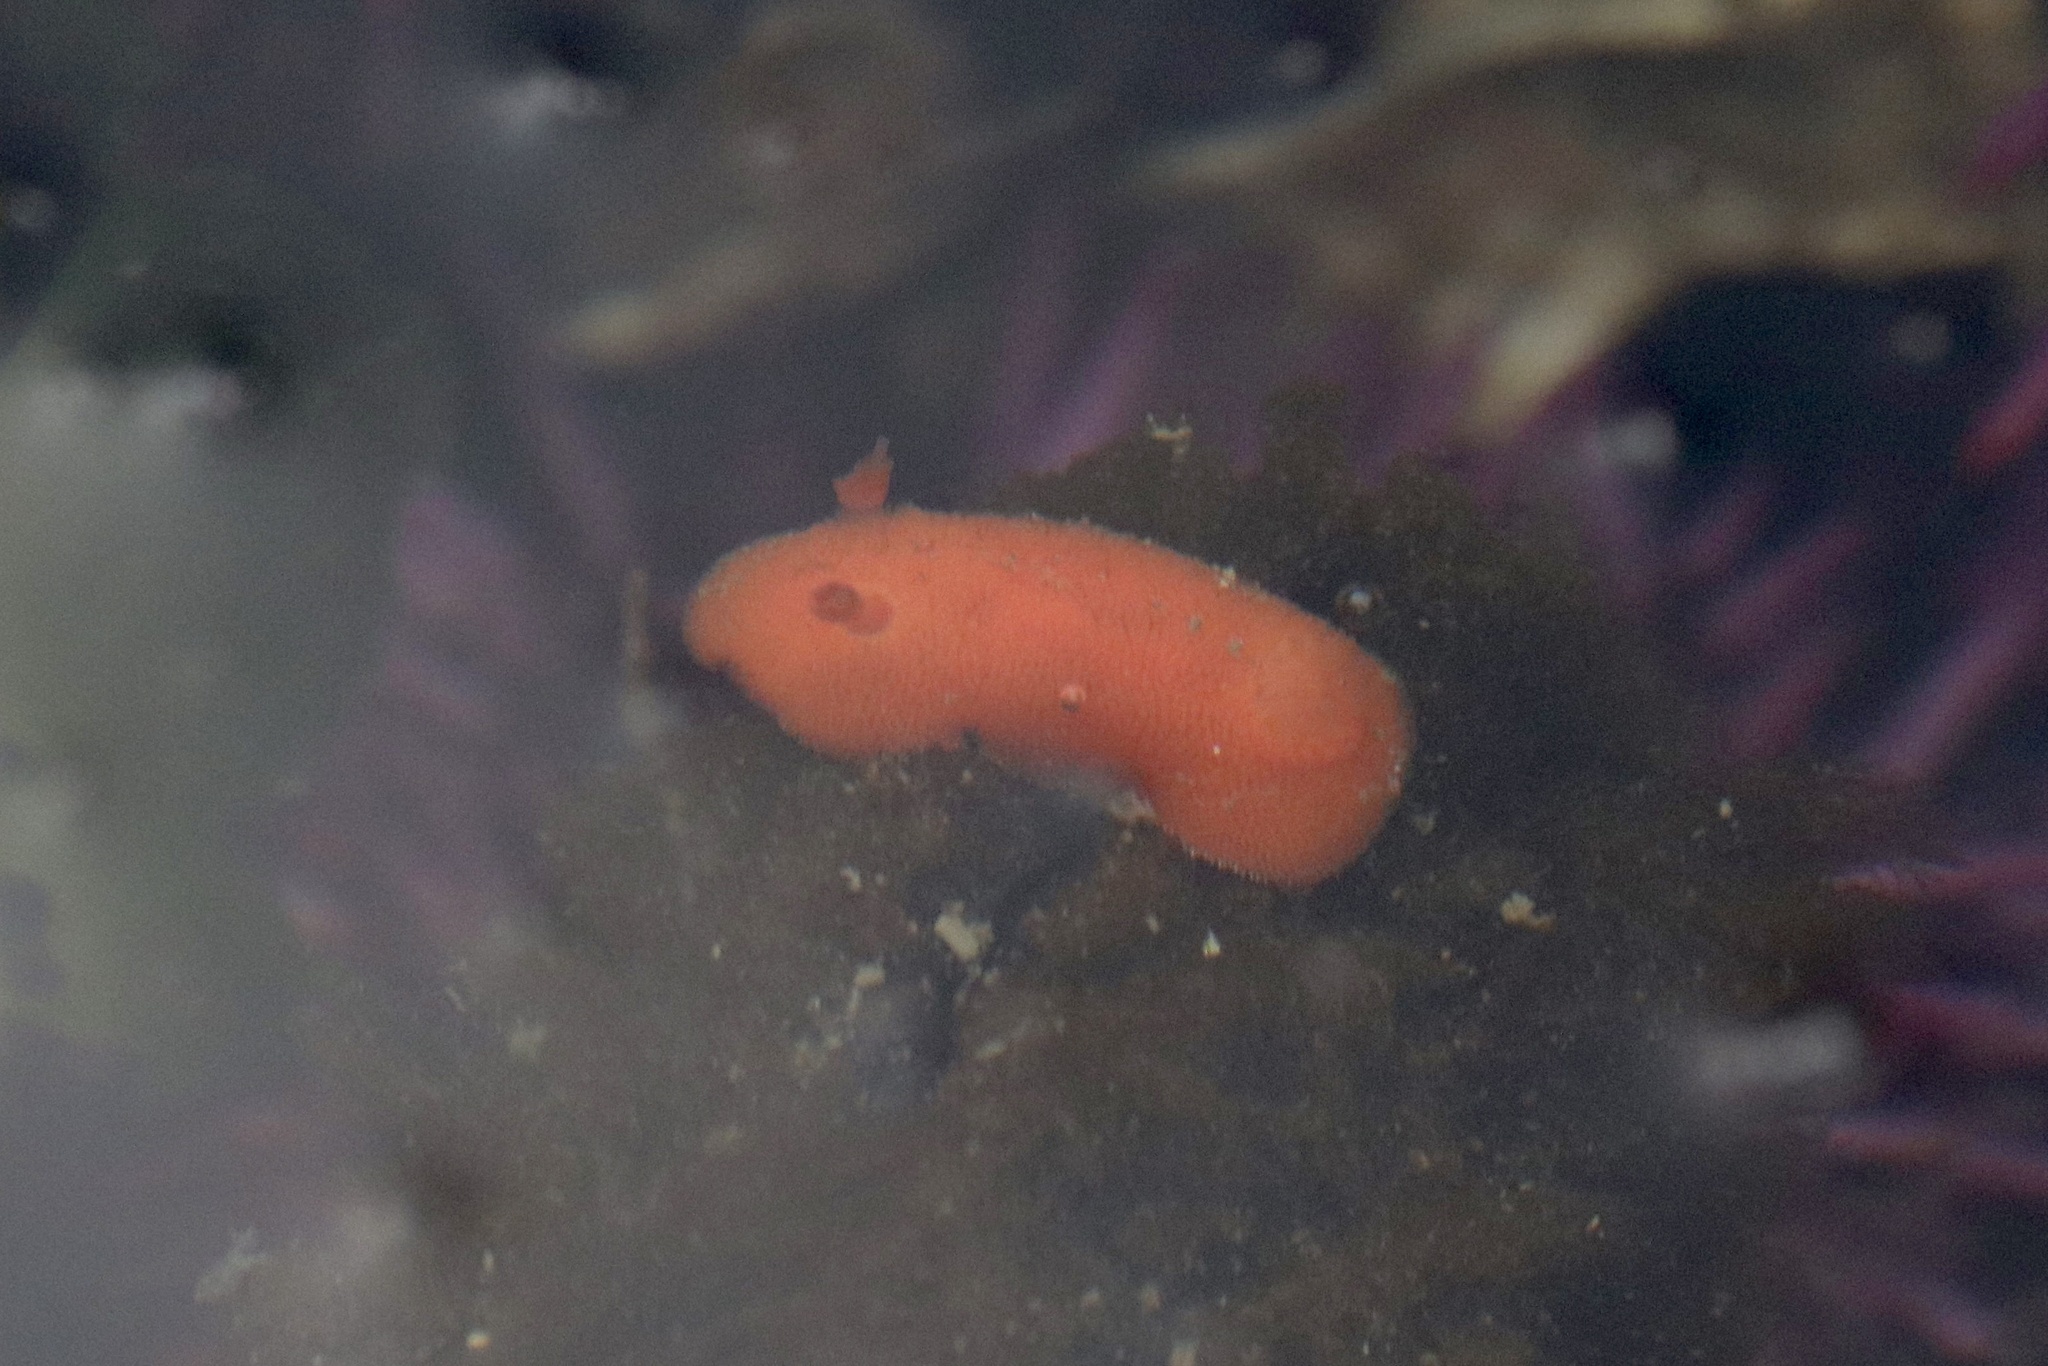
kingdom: Animalia
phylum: Mollusca
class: Gastropoda
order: Nudibranchia
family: Discodorididae
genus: Rostanga
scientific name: Rostanga pulchra
